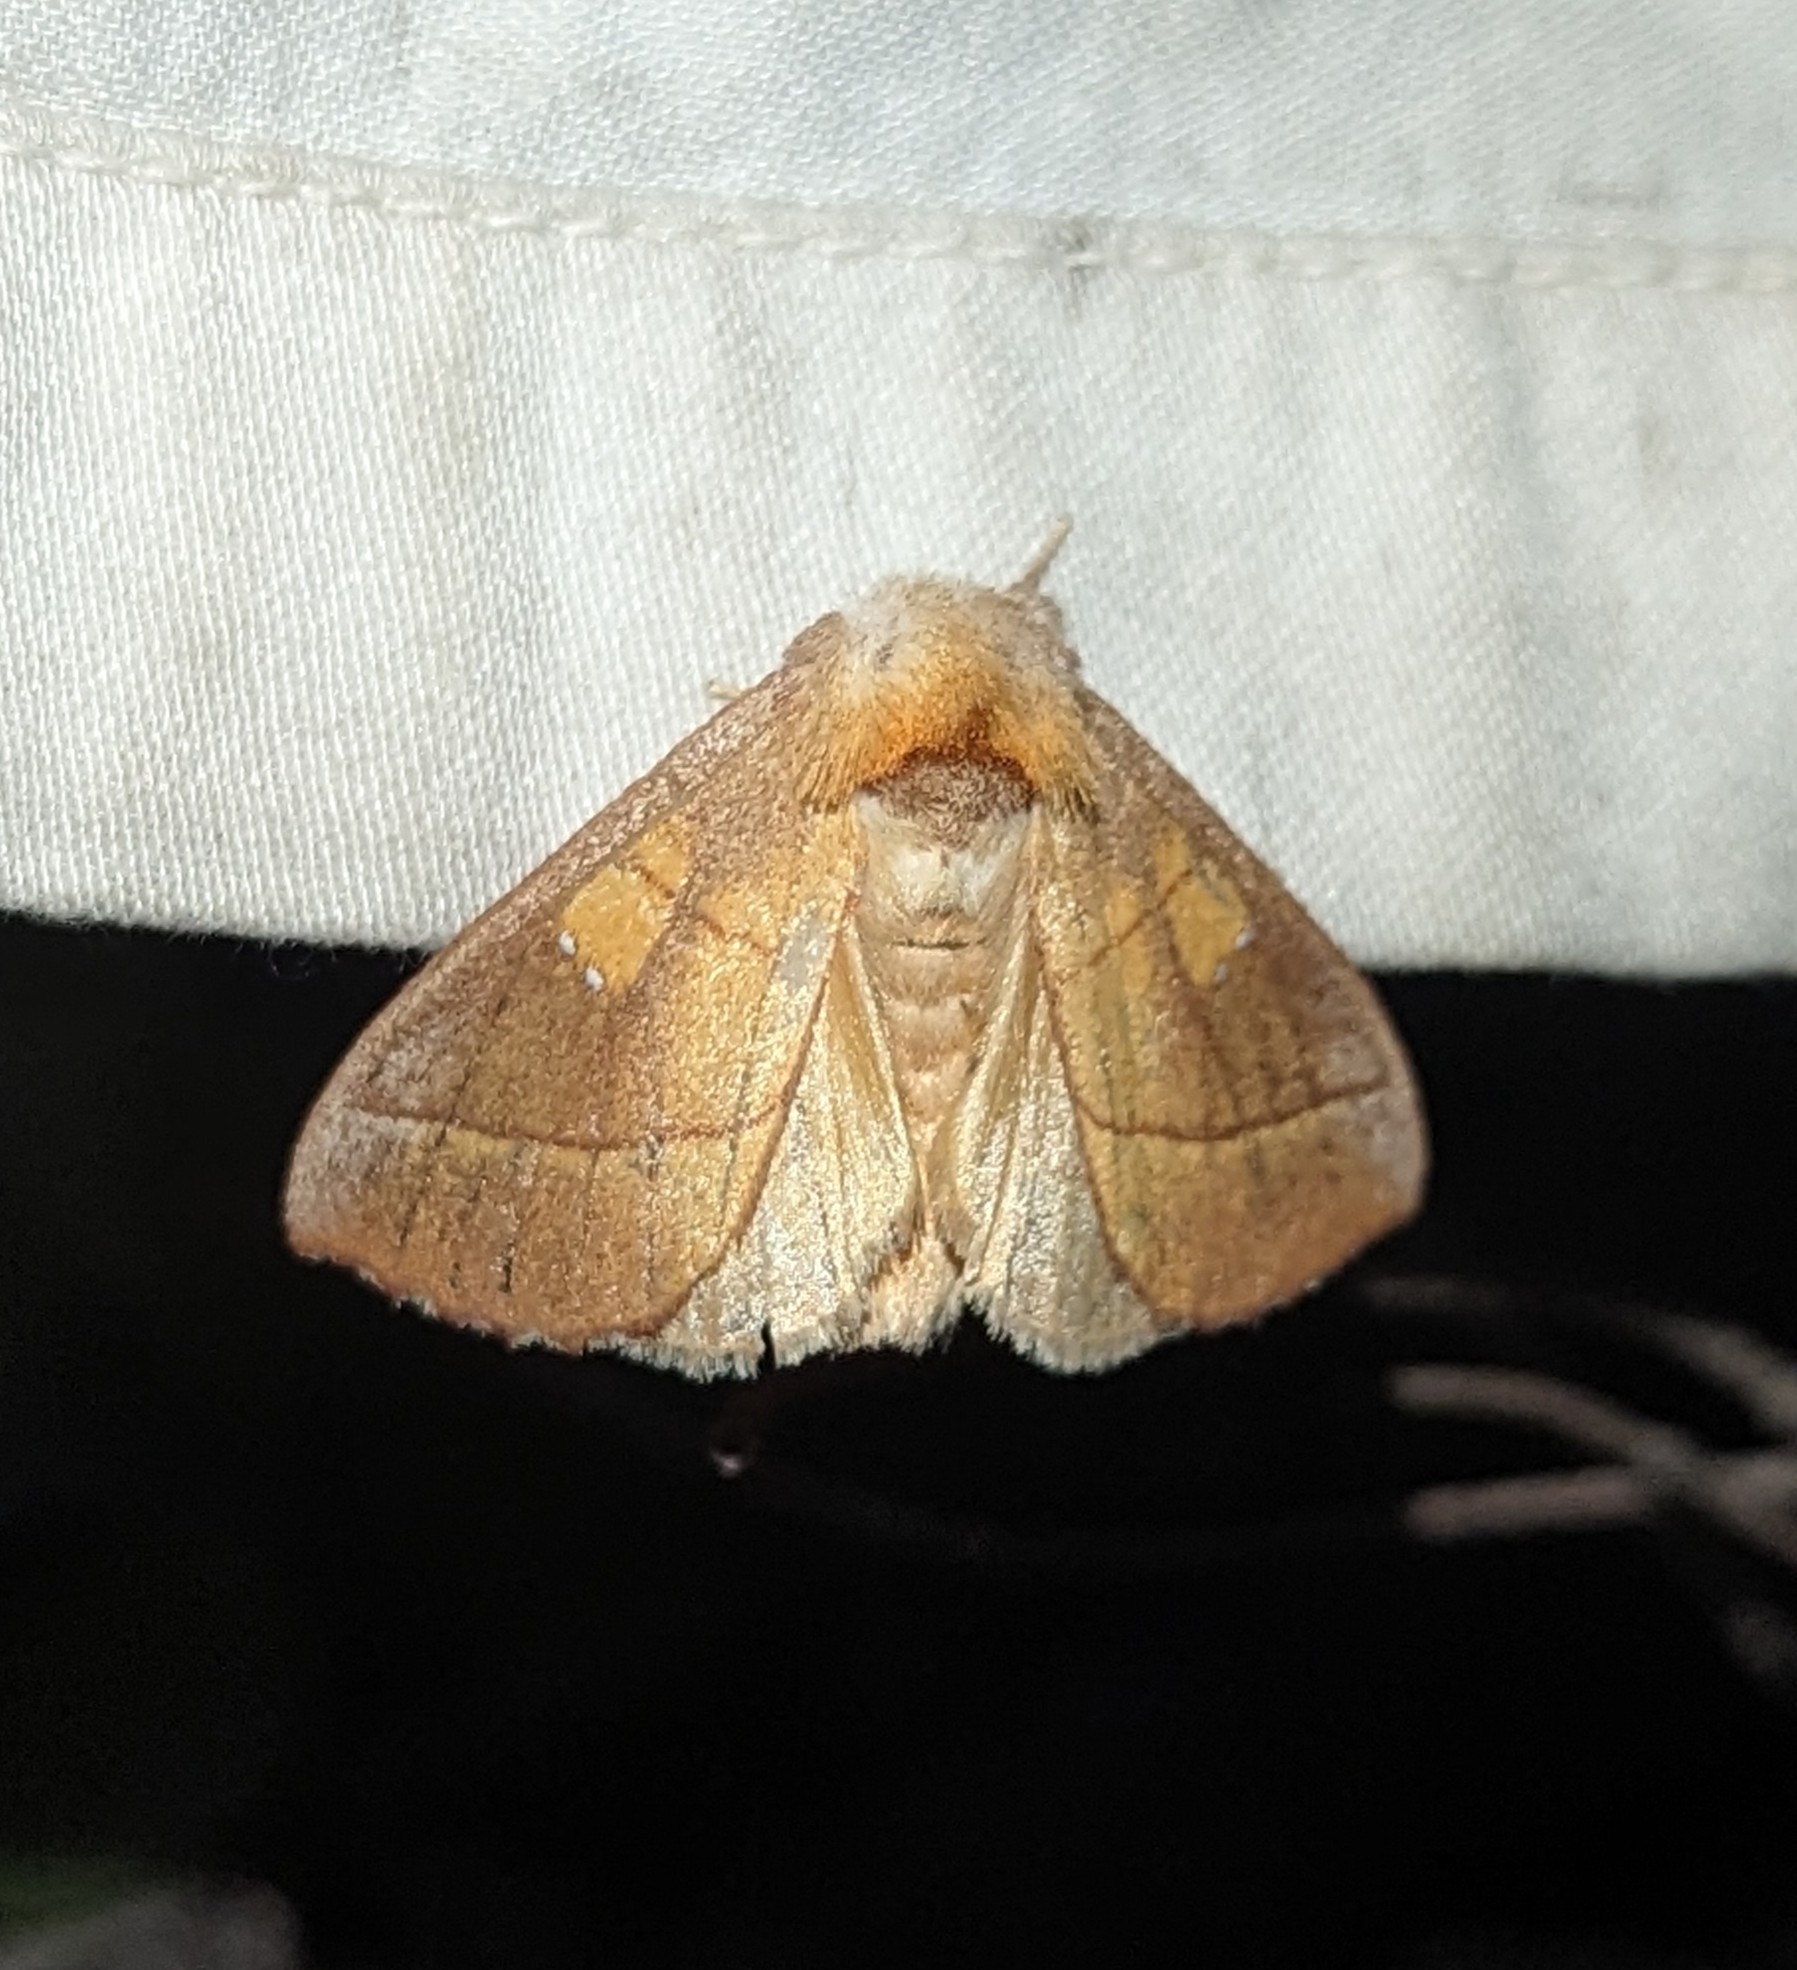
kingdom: Animalia
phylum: Arthropoda
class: Insecta
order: Lepidoptera
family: Notodontidae
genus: Nadata
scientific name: Nadata gibbosa
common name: White-dotted prominent
